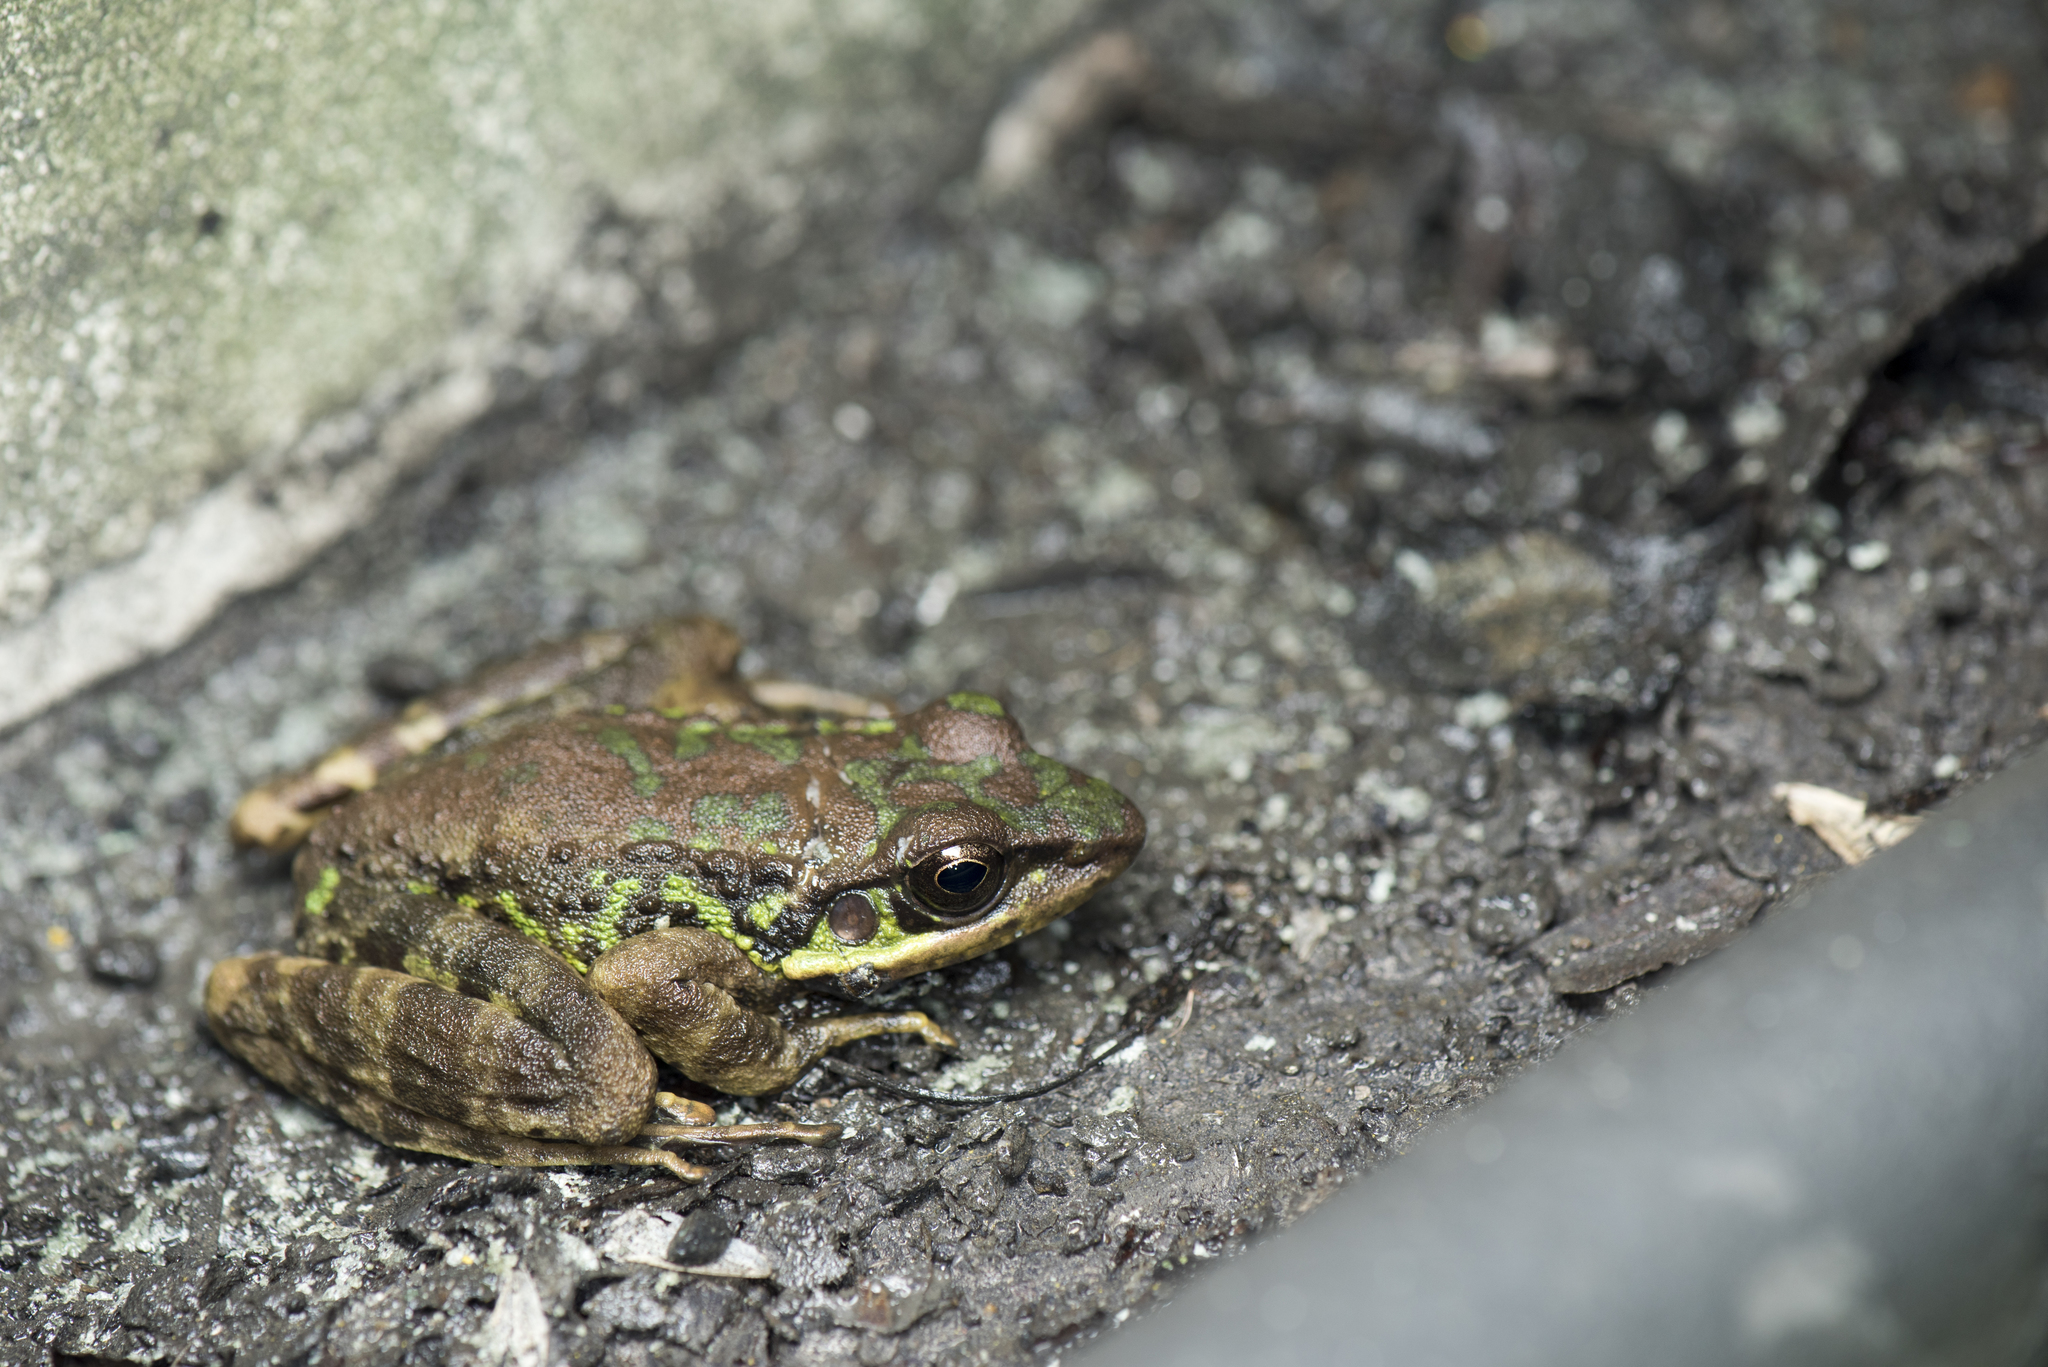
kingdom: Animalia
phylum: Chordata
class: Amphibia
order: Anura
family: Ranidae
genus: Odorrana
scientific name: Odorrana swinhoana
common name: Bangkimtsing frog
